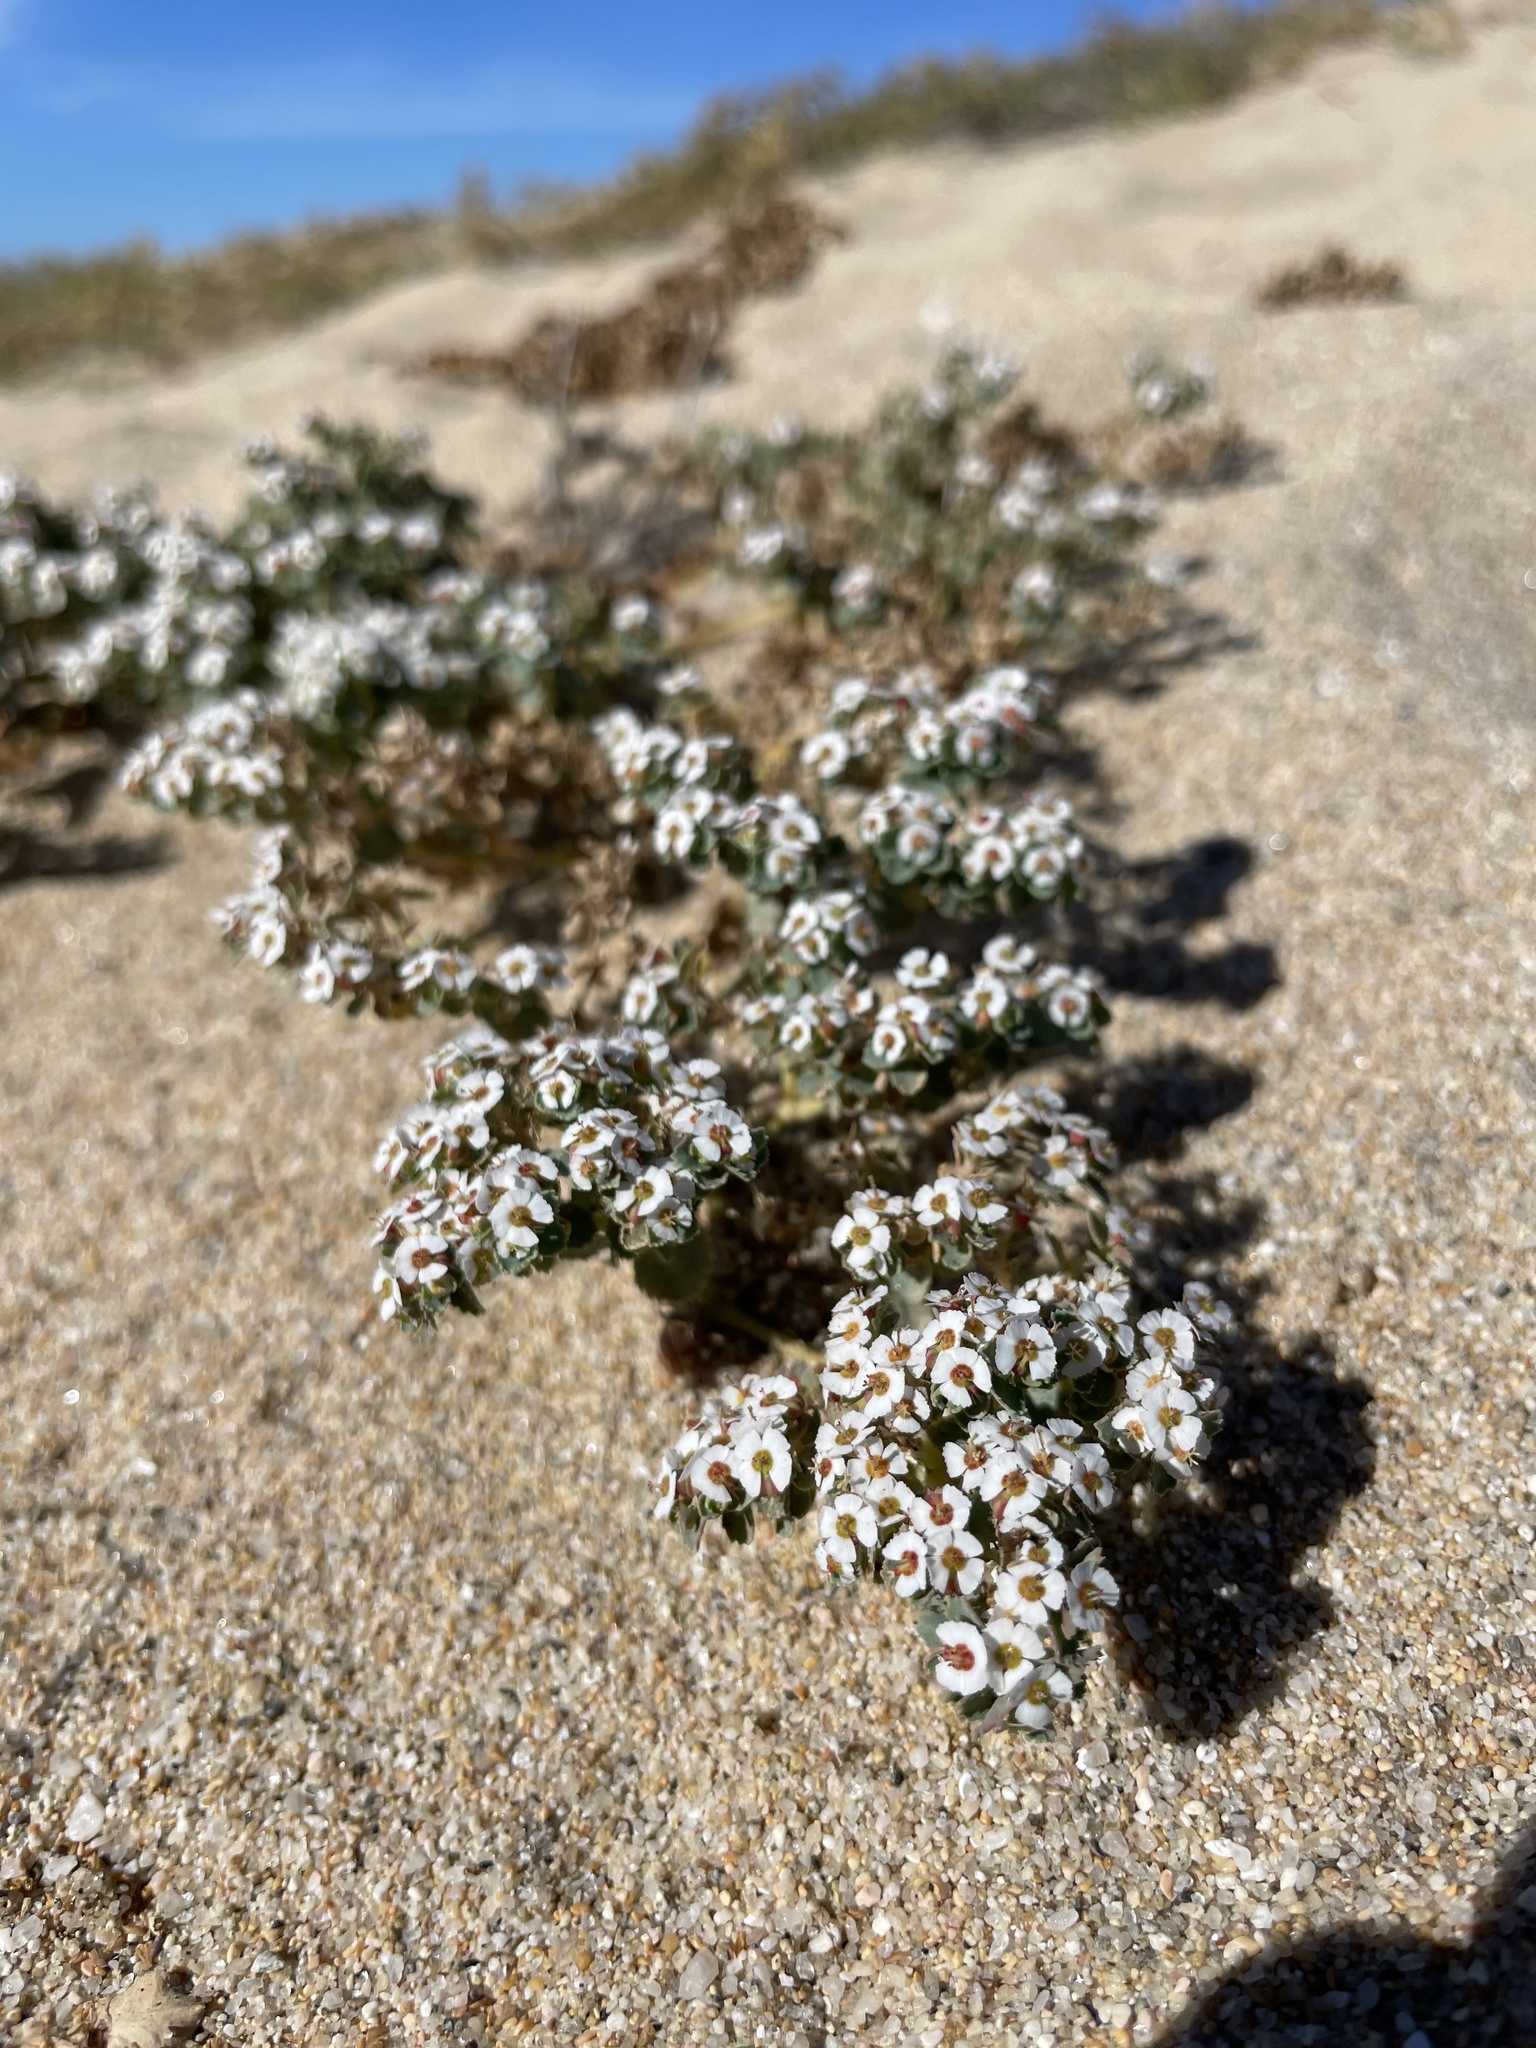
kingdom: Plantae
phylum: Tracheophyta
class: Magnoliopsida
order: Malpighiales
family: Euphorbiaceae
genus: Euphorbia
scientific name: Euphorbia leucophylla
